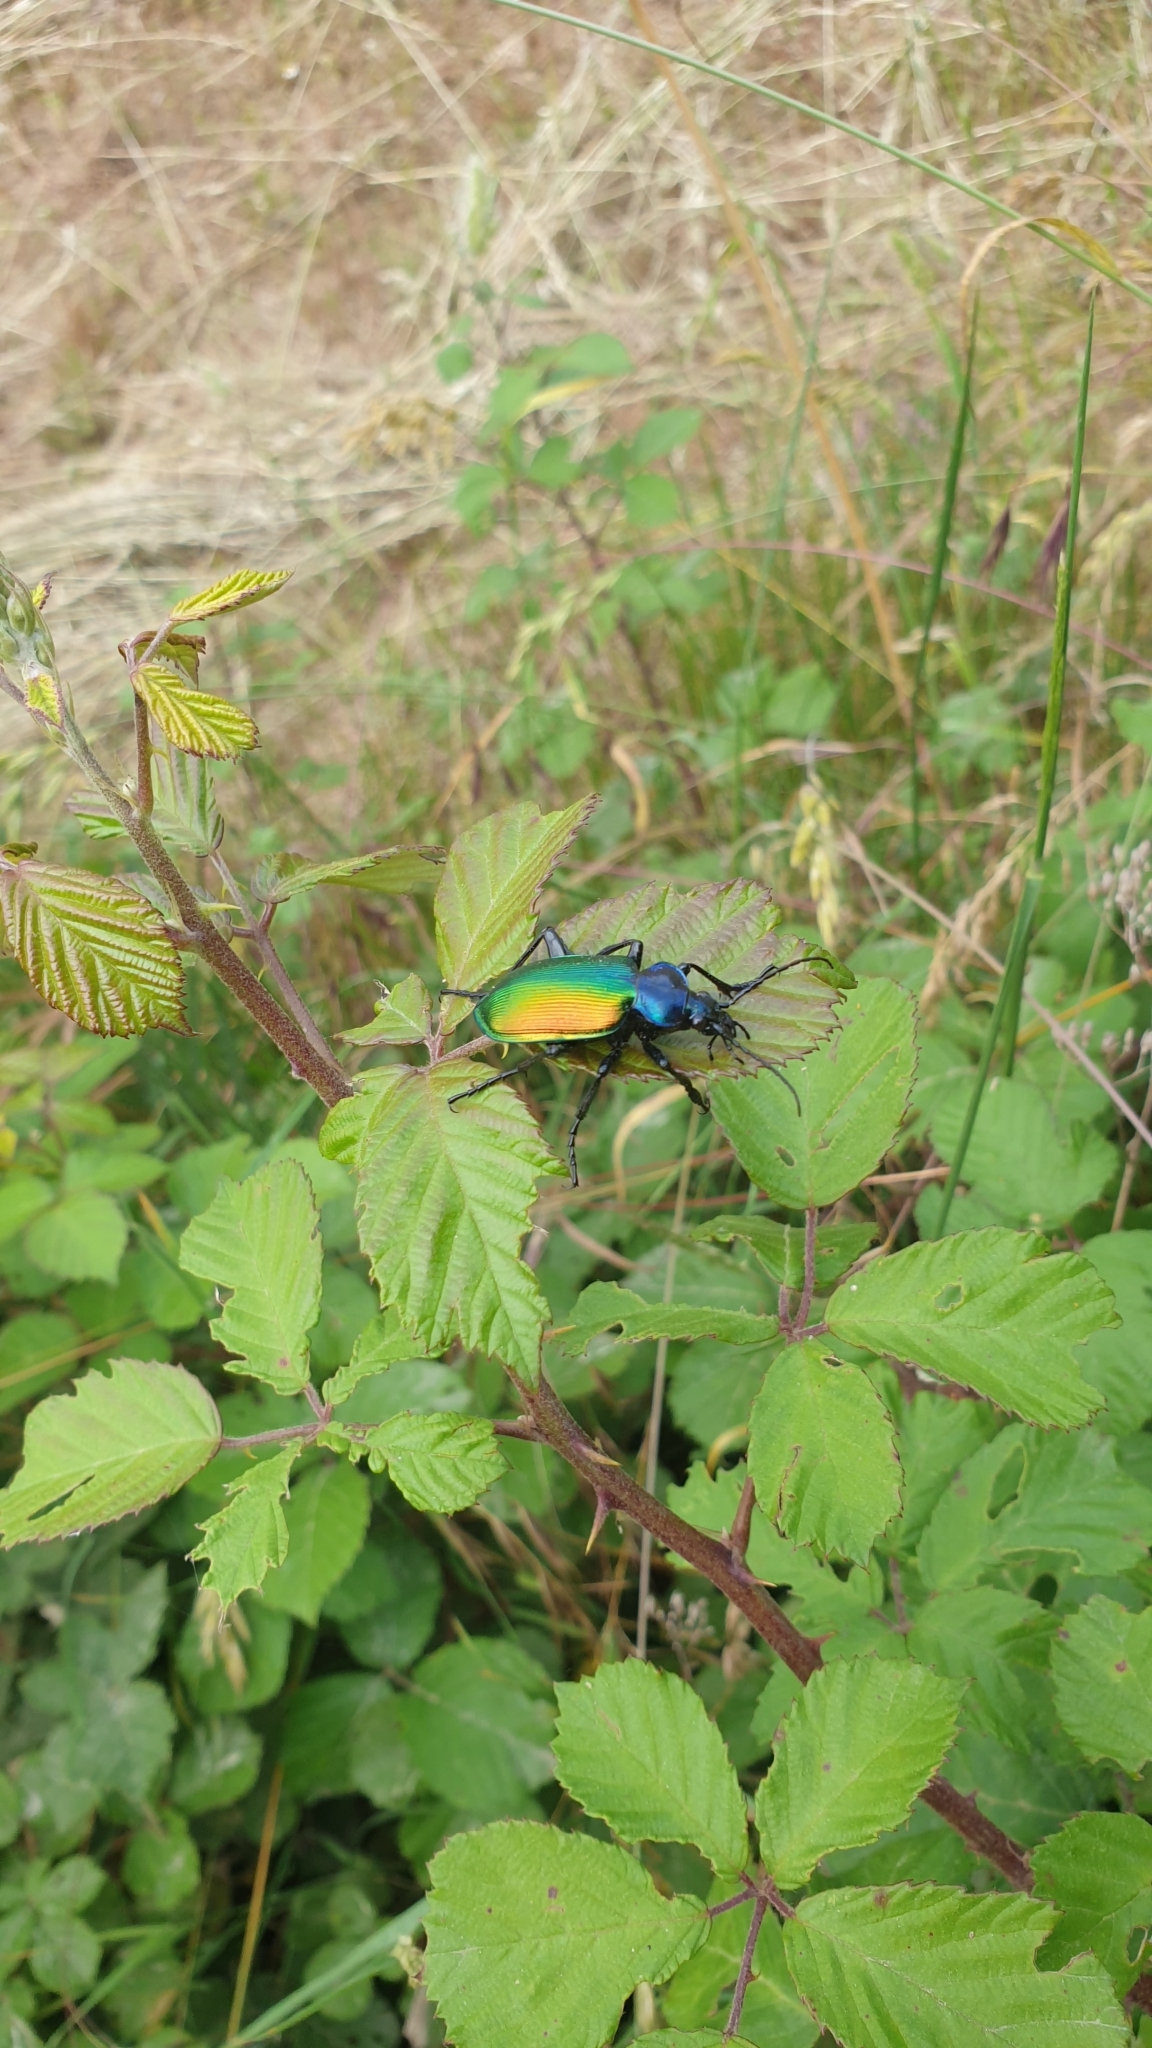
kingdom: Animalia
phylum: Arthropoda
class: Insecta
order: Coleoptera
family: Carabidae
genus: Calosoma
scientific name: Calosoma sycophanta
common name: Forest caterpillar hunter
